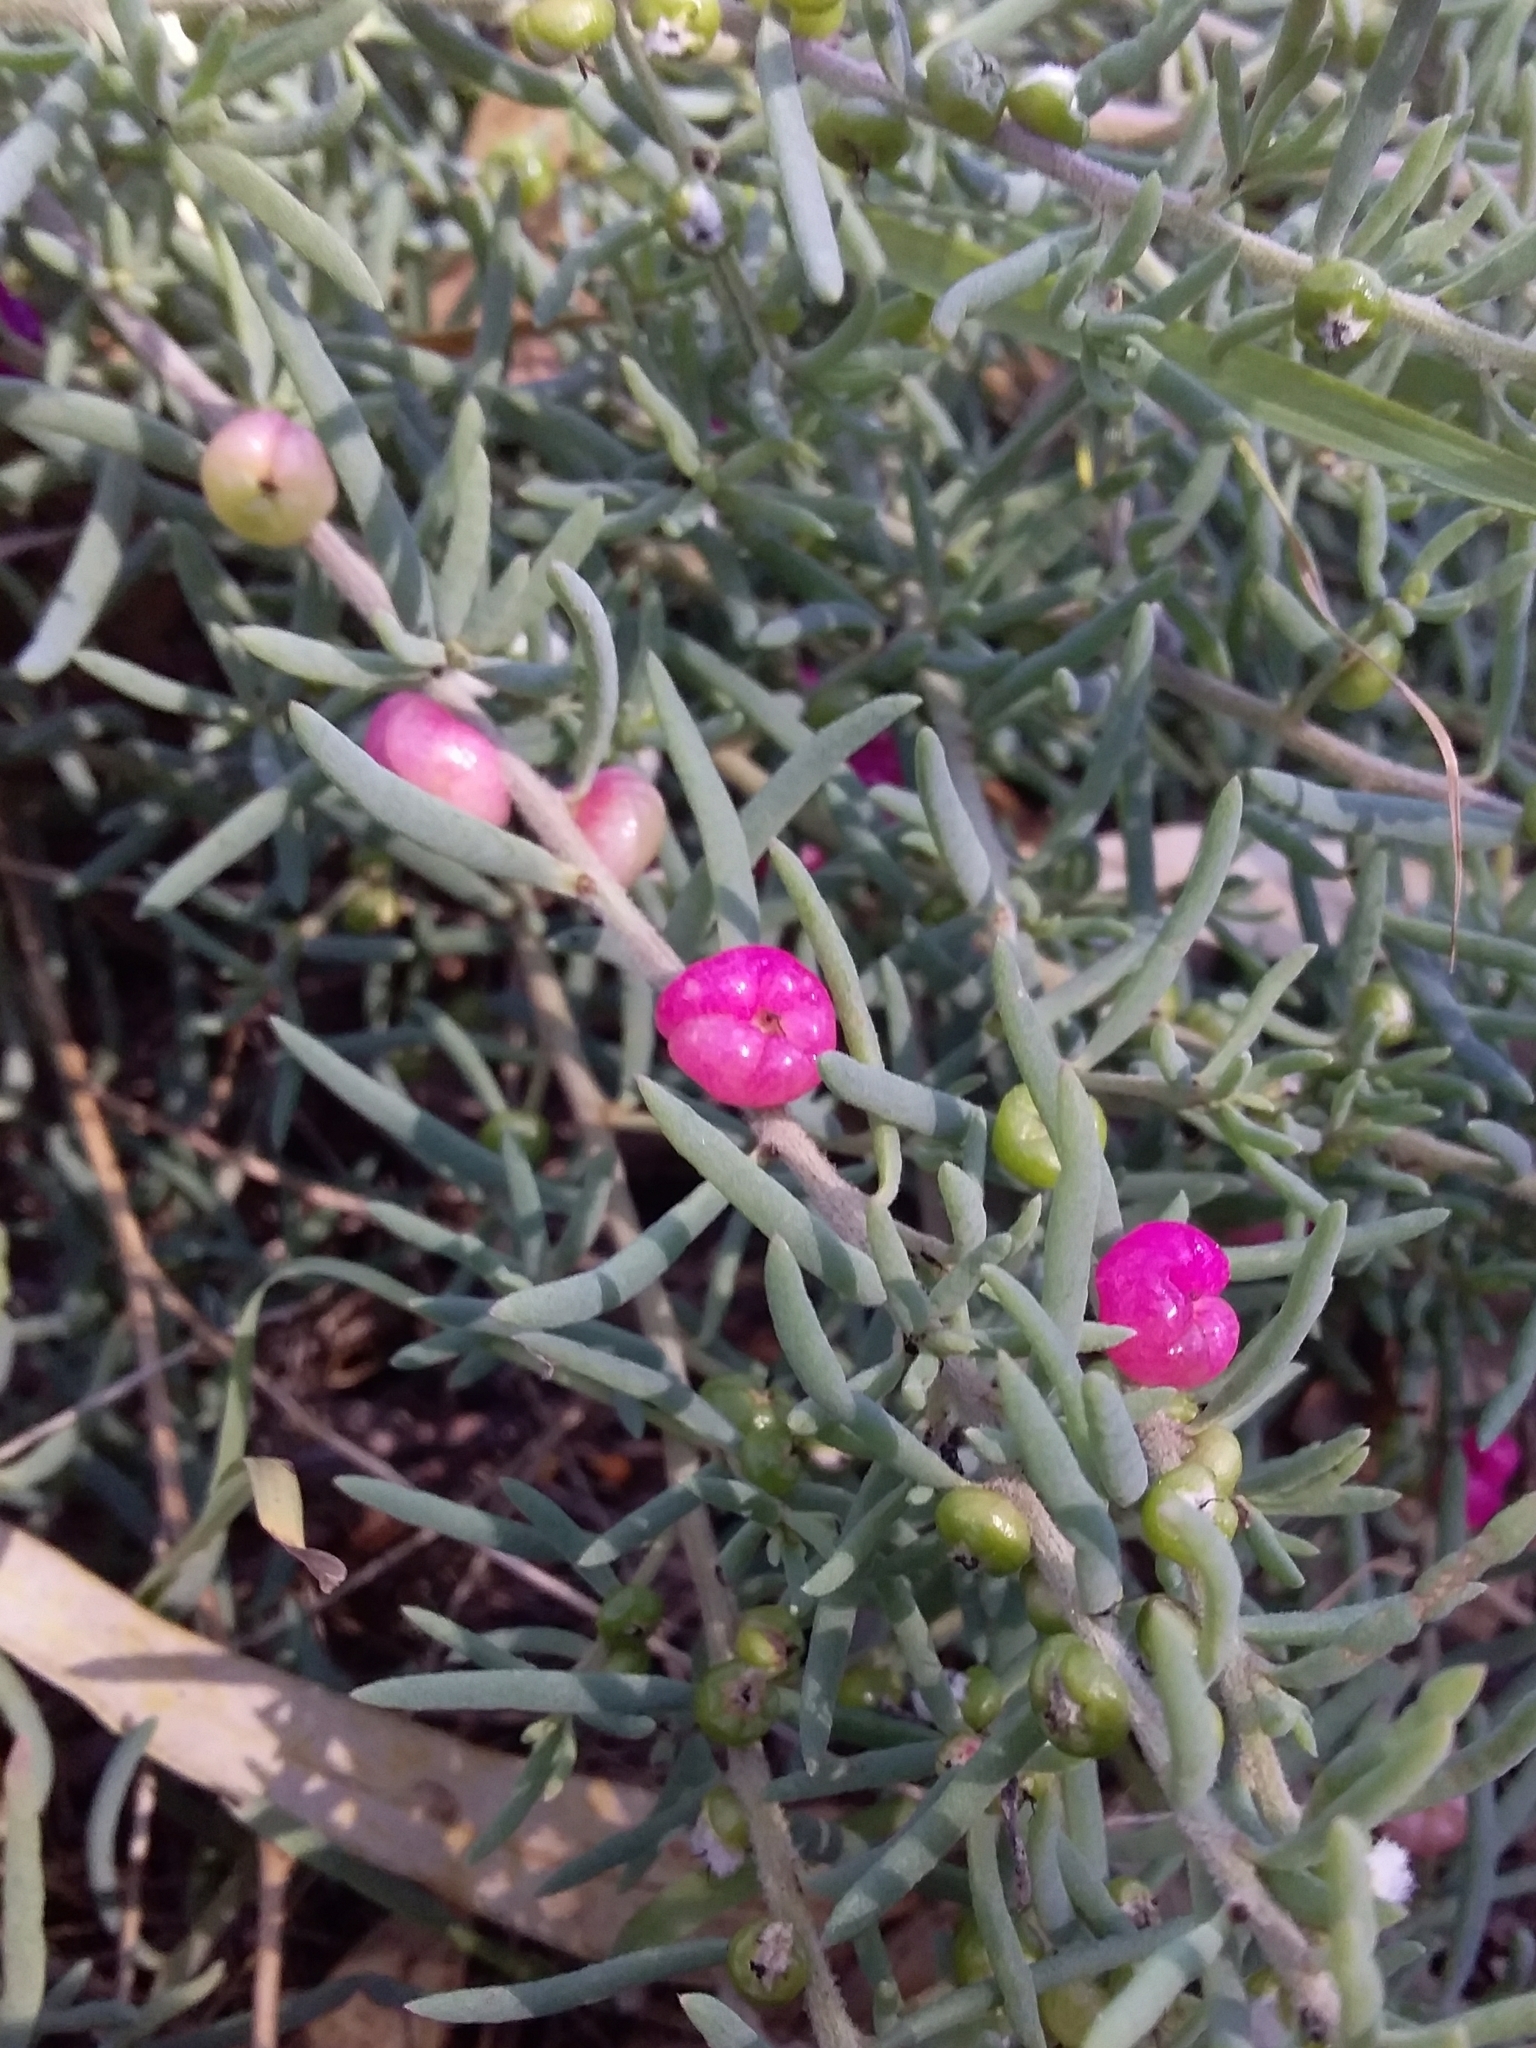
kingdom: Plantae
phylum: Tracheophyta
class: Magnoliopsida
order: Caryophyllales
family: Amaranthaceae
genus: Enchylaena
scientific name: Enchylaena tomentosa
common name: Ruby saltbush
